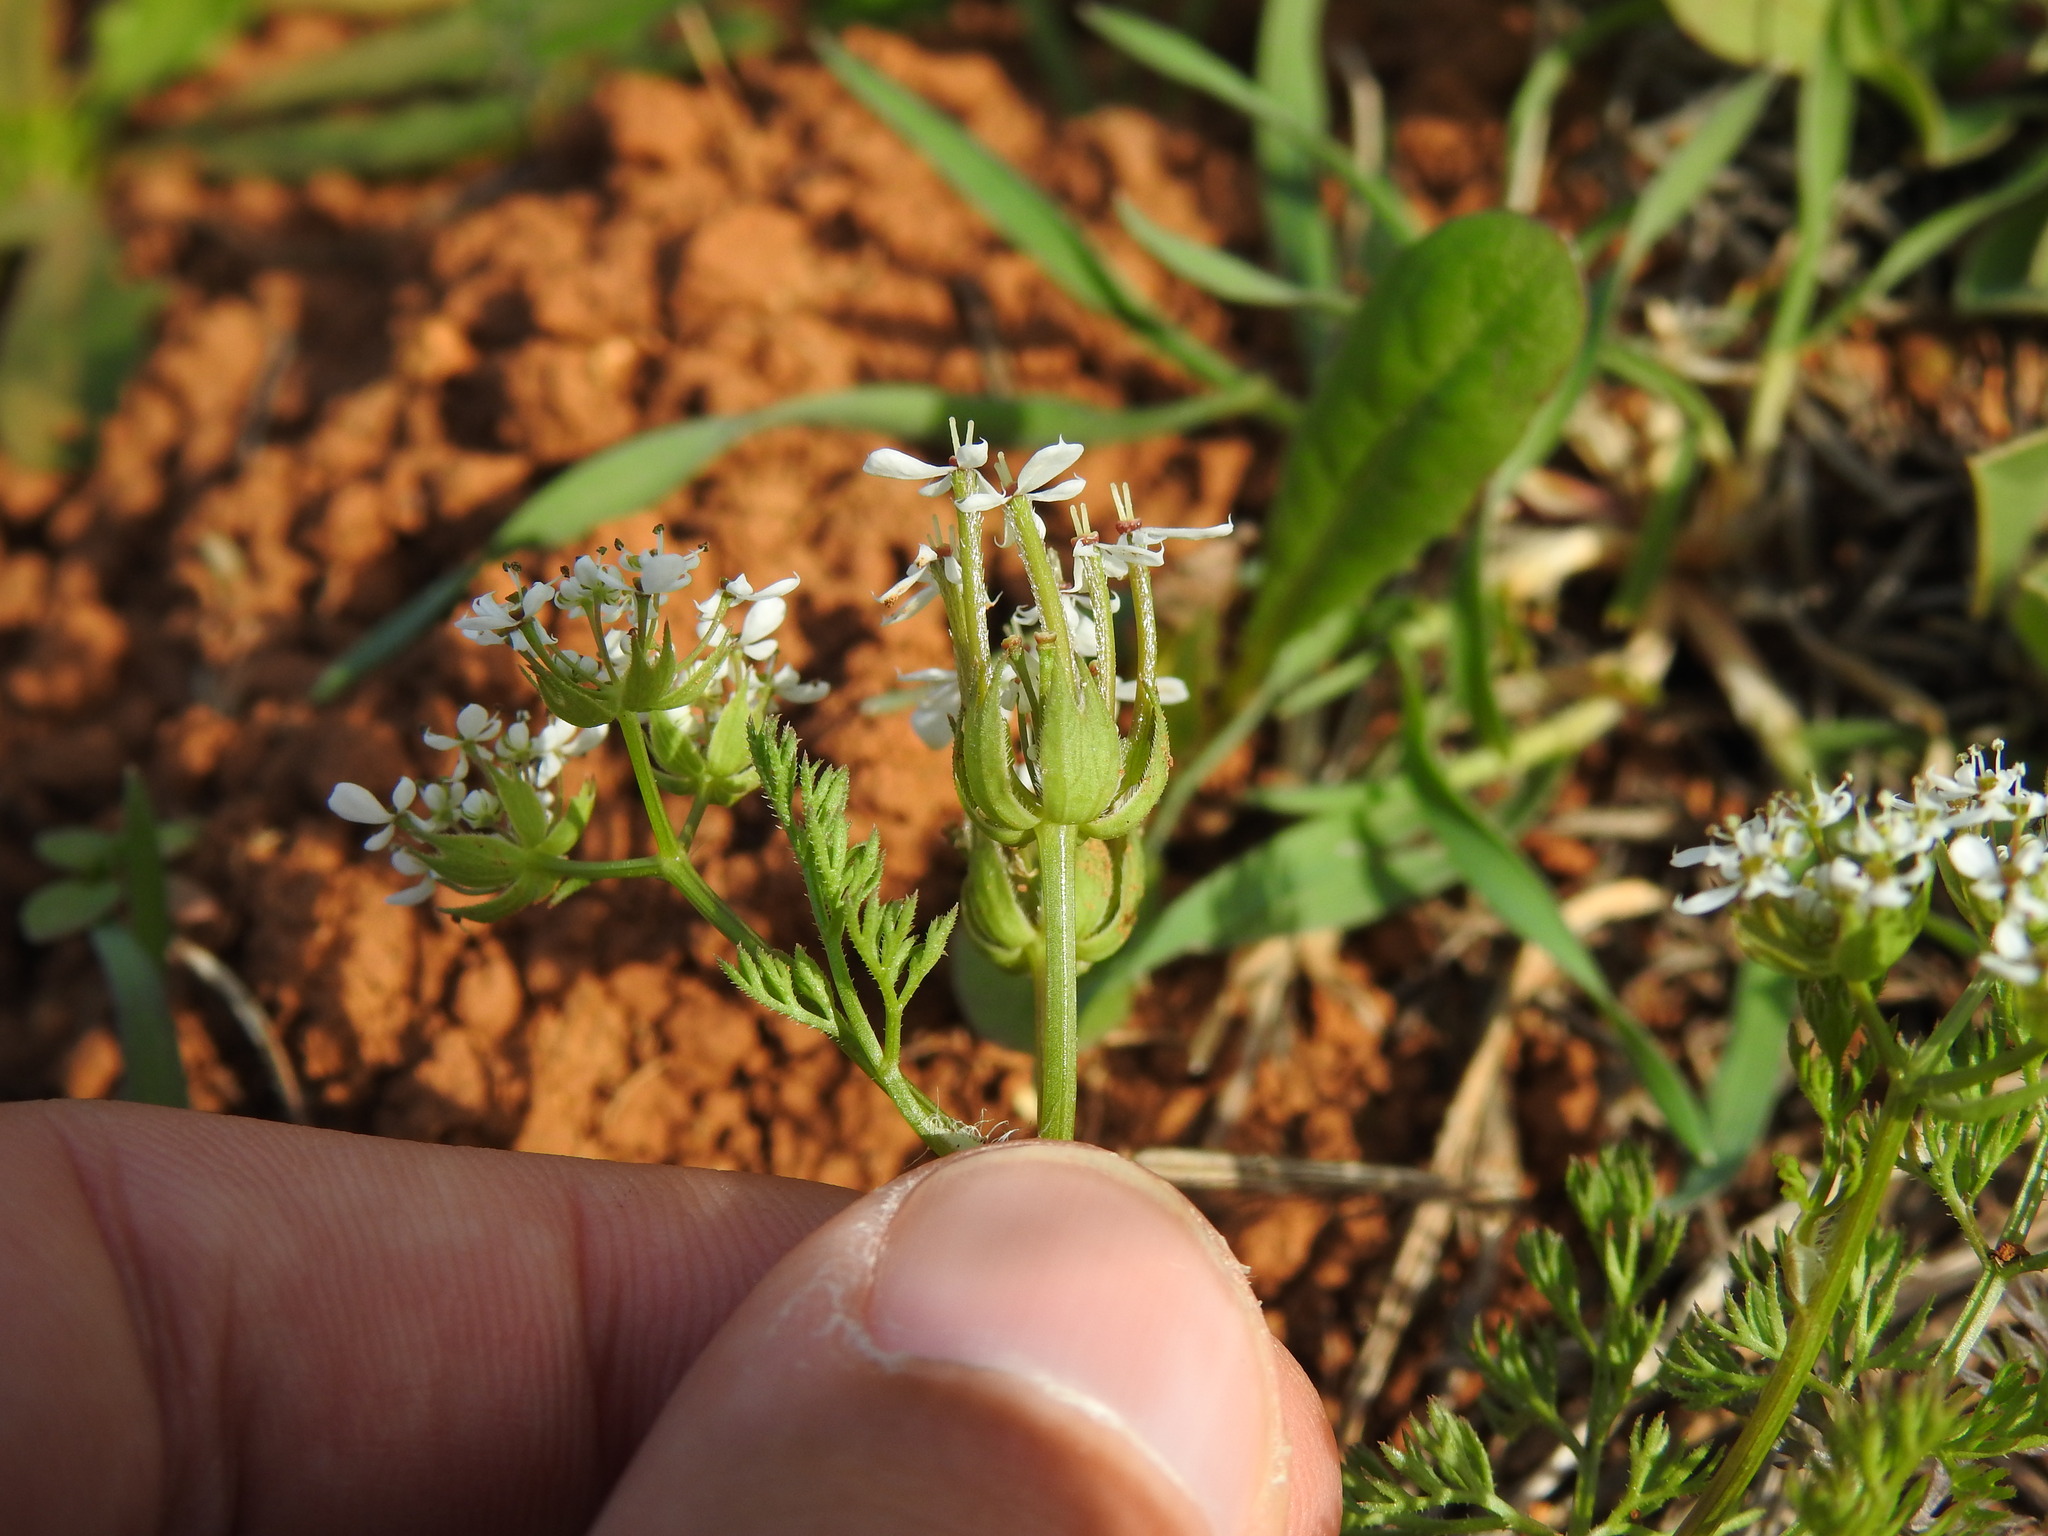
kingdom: Plantae
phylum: Tracheophyta
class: Magnoliopsida
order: Apiales
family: Apiaceae
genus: Scandix
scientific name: Scandix pecten-veneris
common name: Shepherd's-needle
